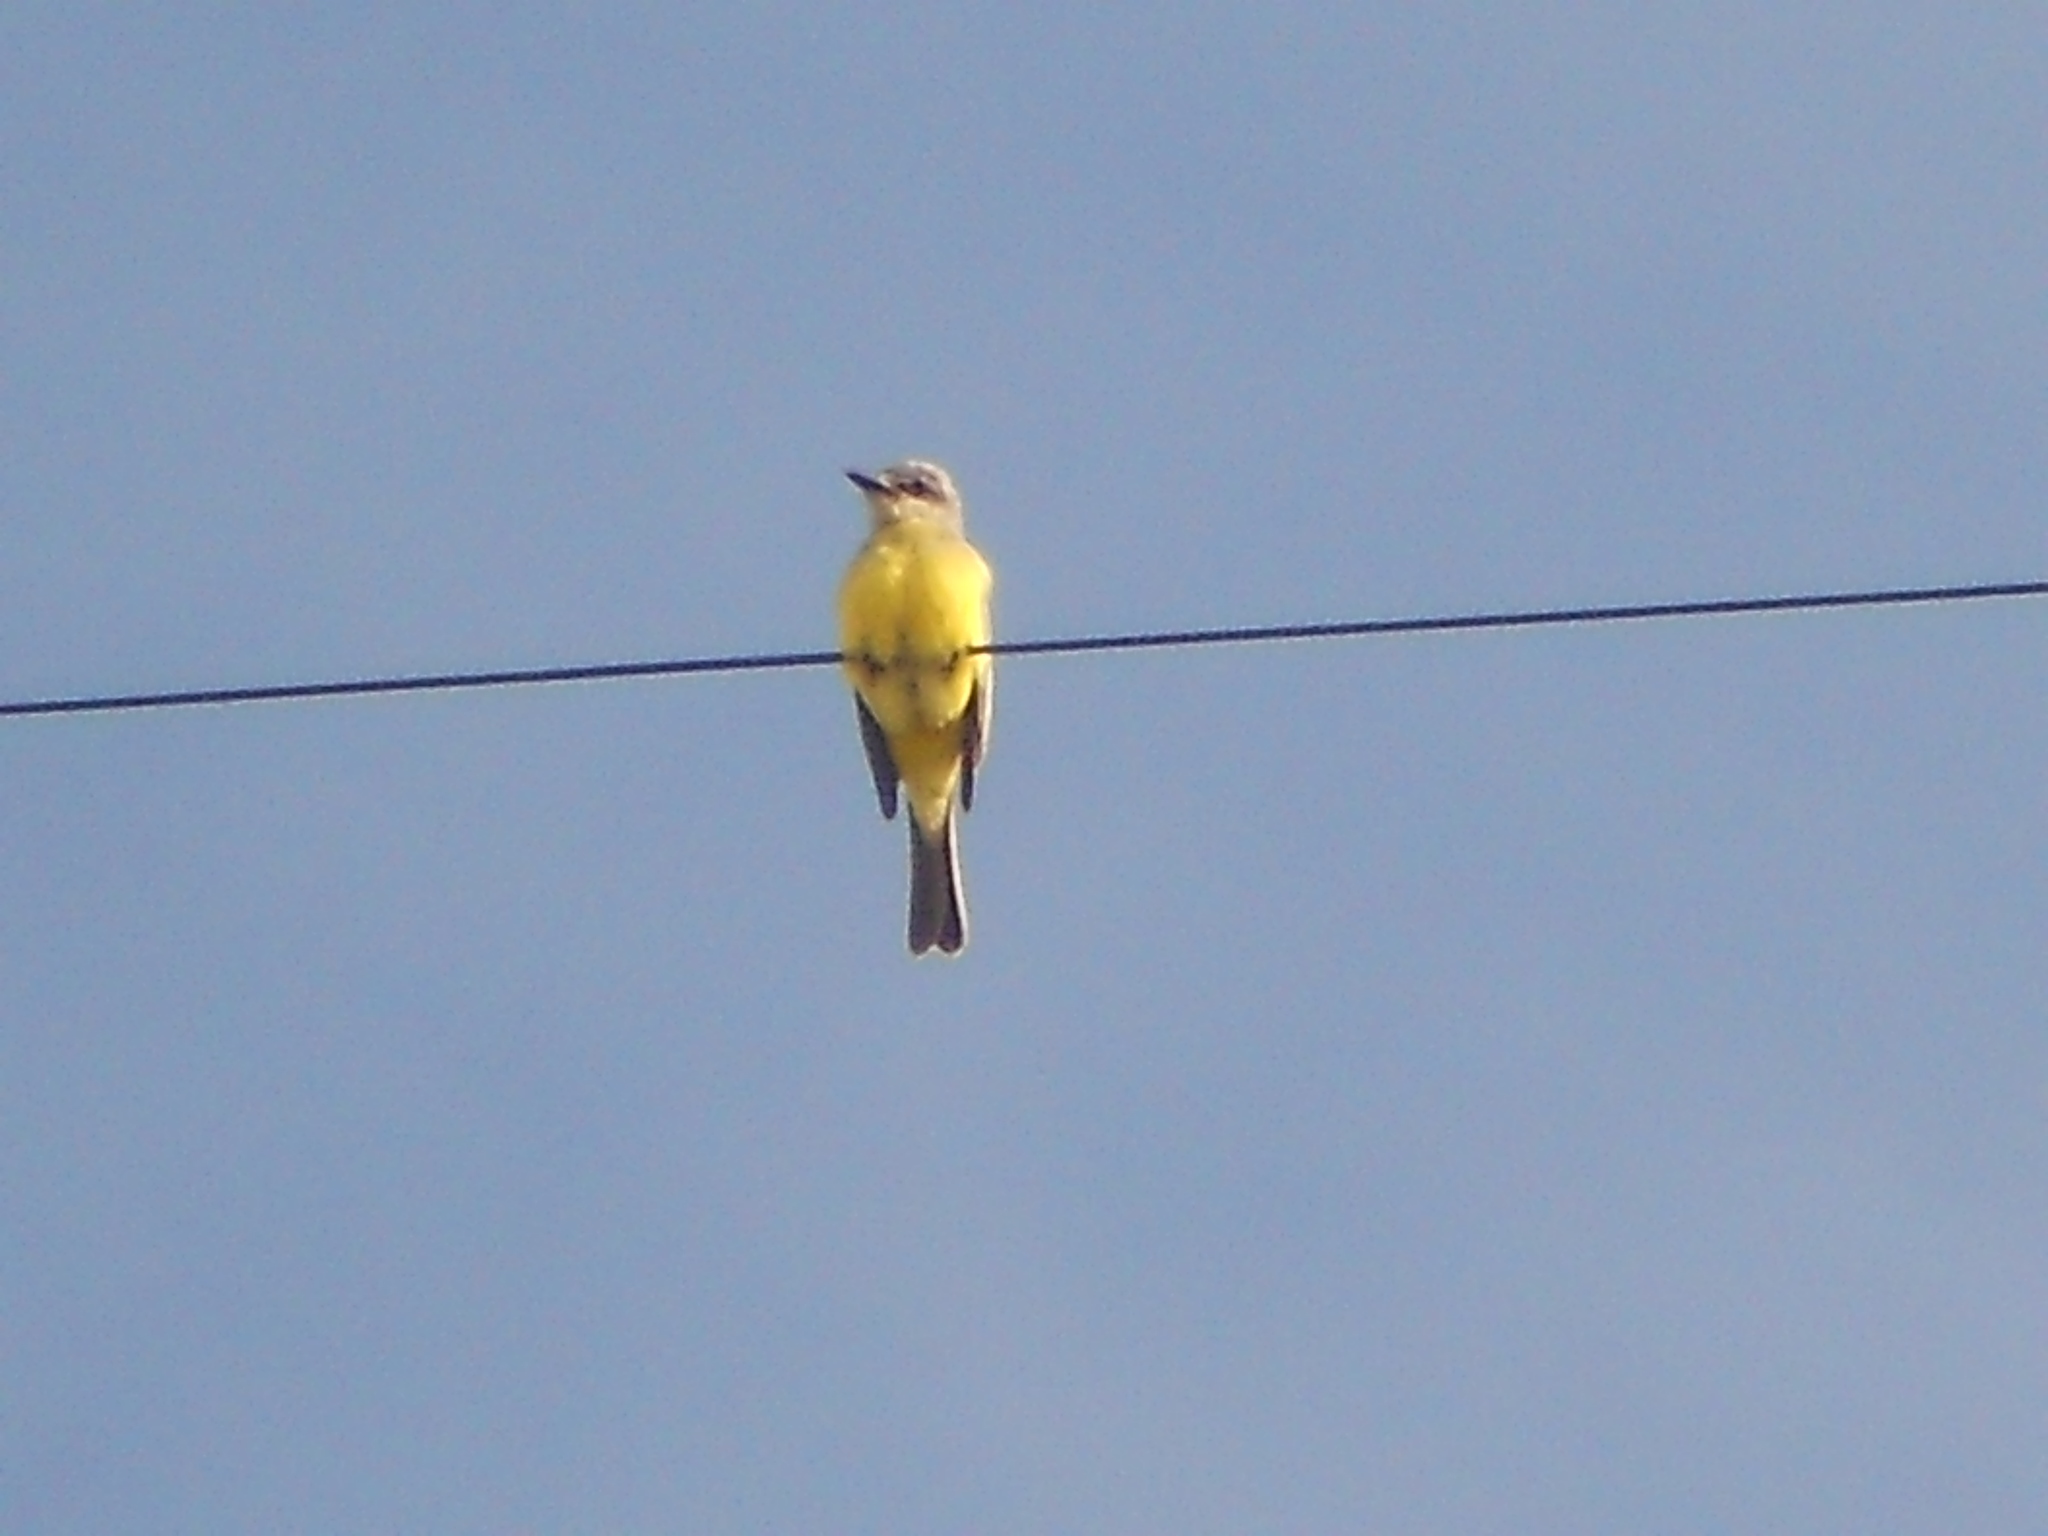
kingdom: Animalia
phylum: Chordata
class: Aves
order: Passeriformes
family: Tyrannidae
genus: Tyrannus
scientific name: Tyrannus melancholicus
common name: Tropical kingbird
